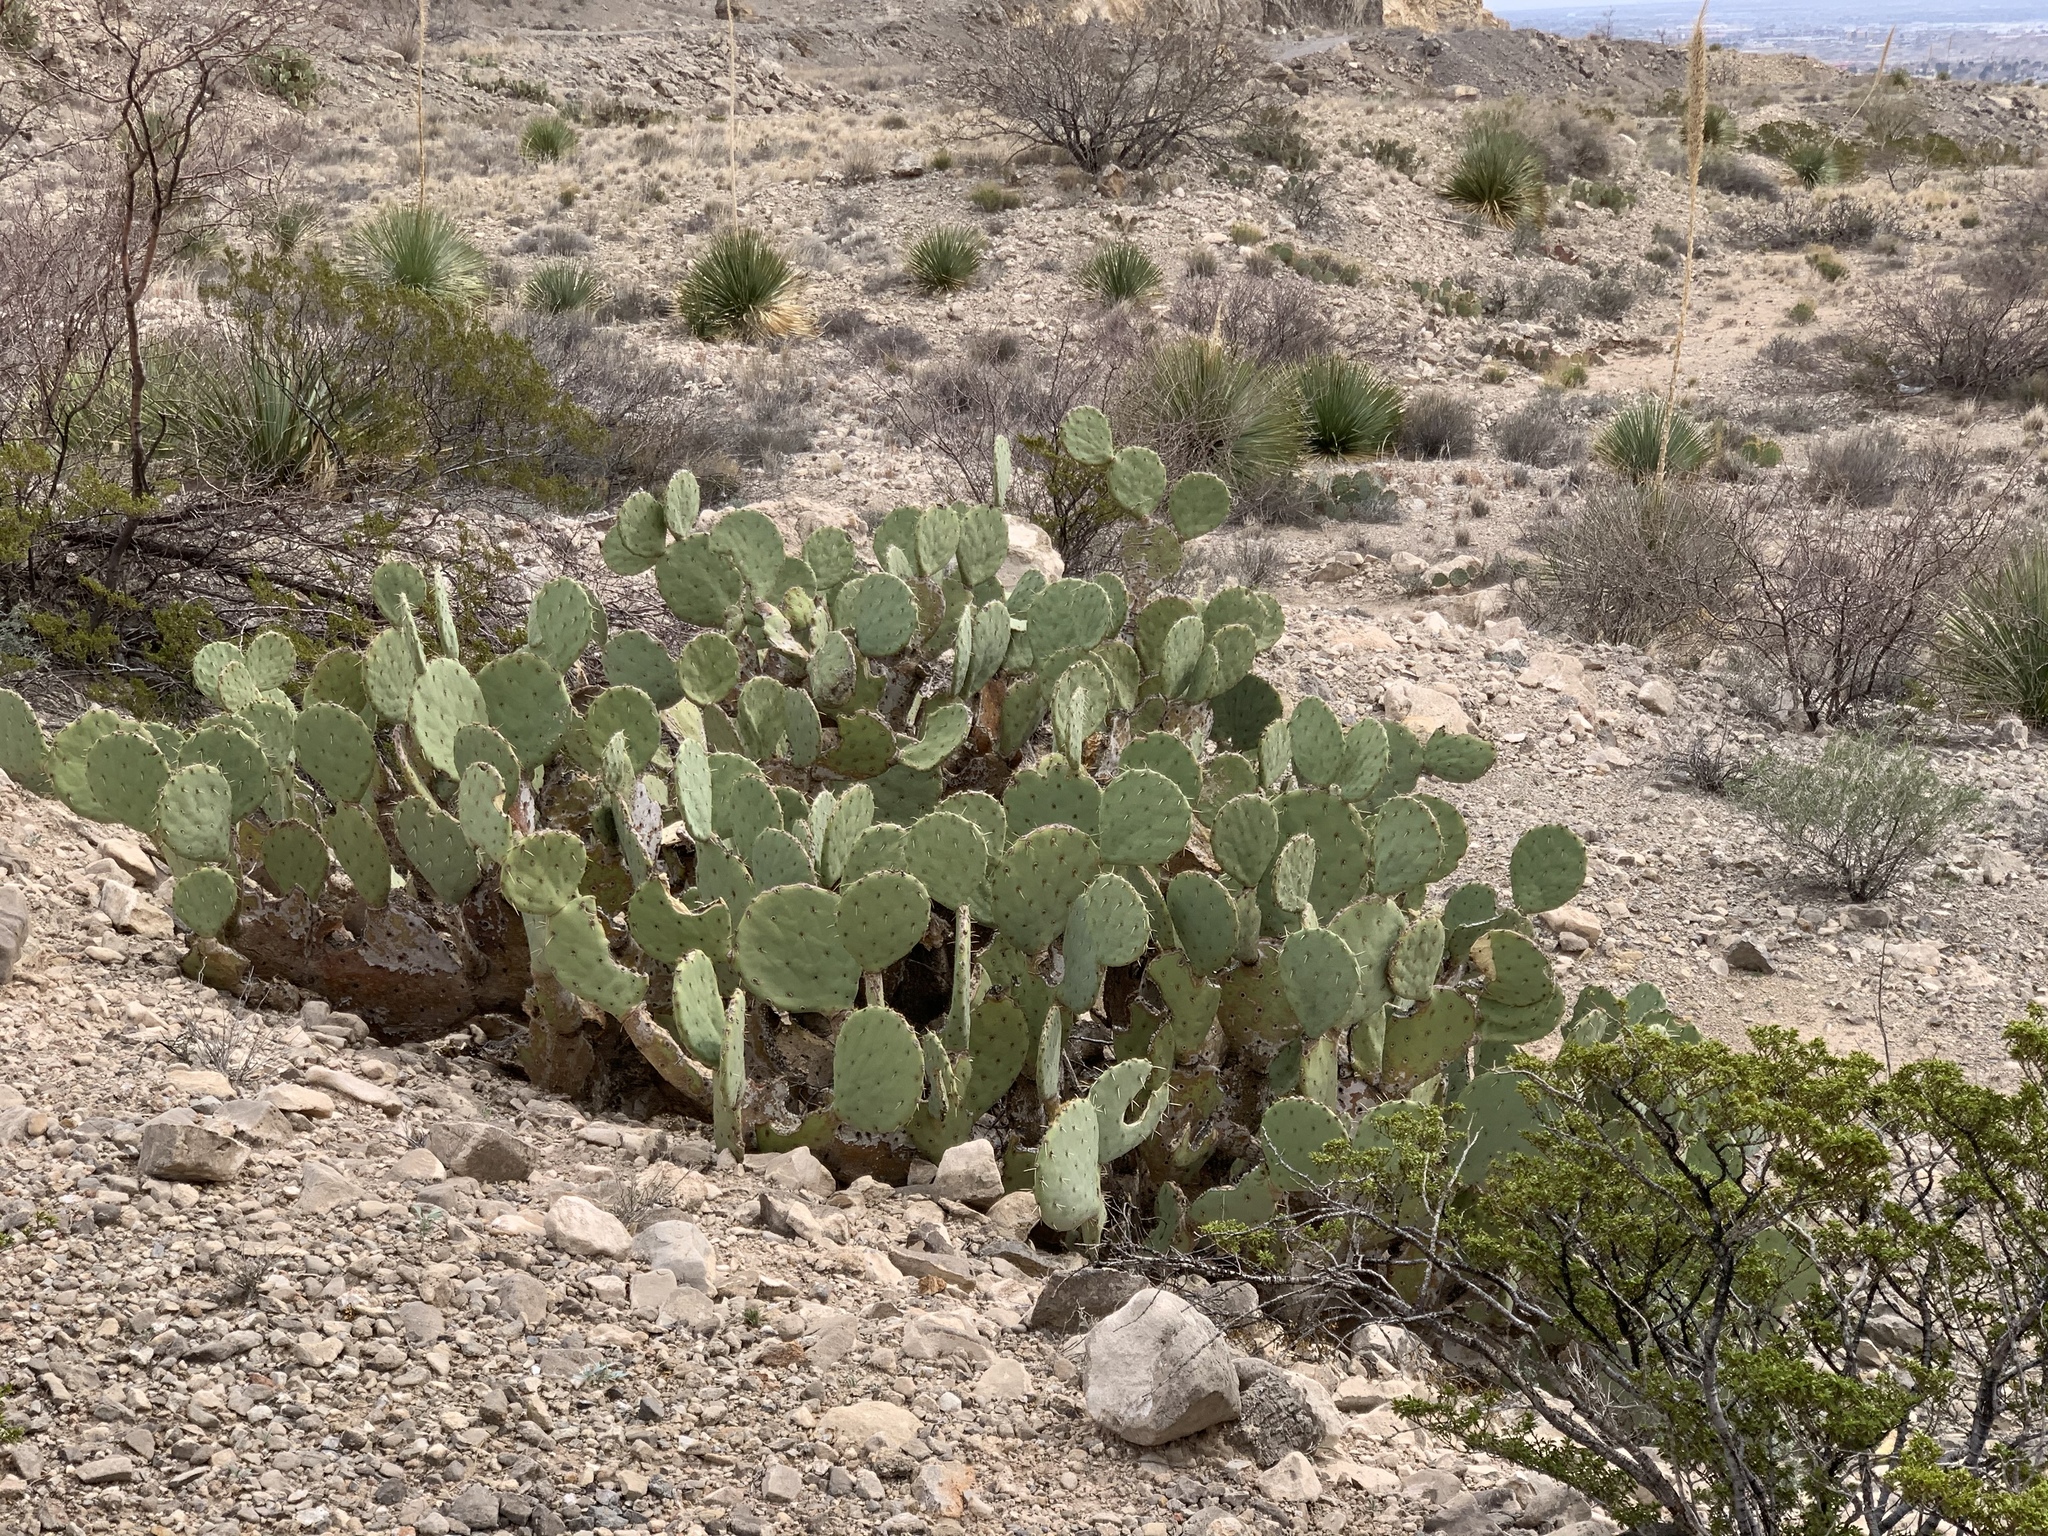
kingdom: Plantae
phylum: Tracheophyta
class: Magnoliopsida
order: Caryophyllales
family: Cactaceae
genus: Opuntia
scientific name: Opuntia engelmannii
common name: Cactus-apple
